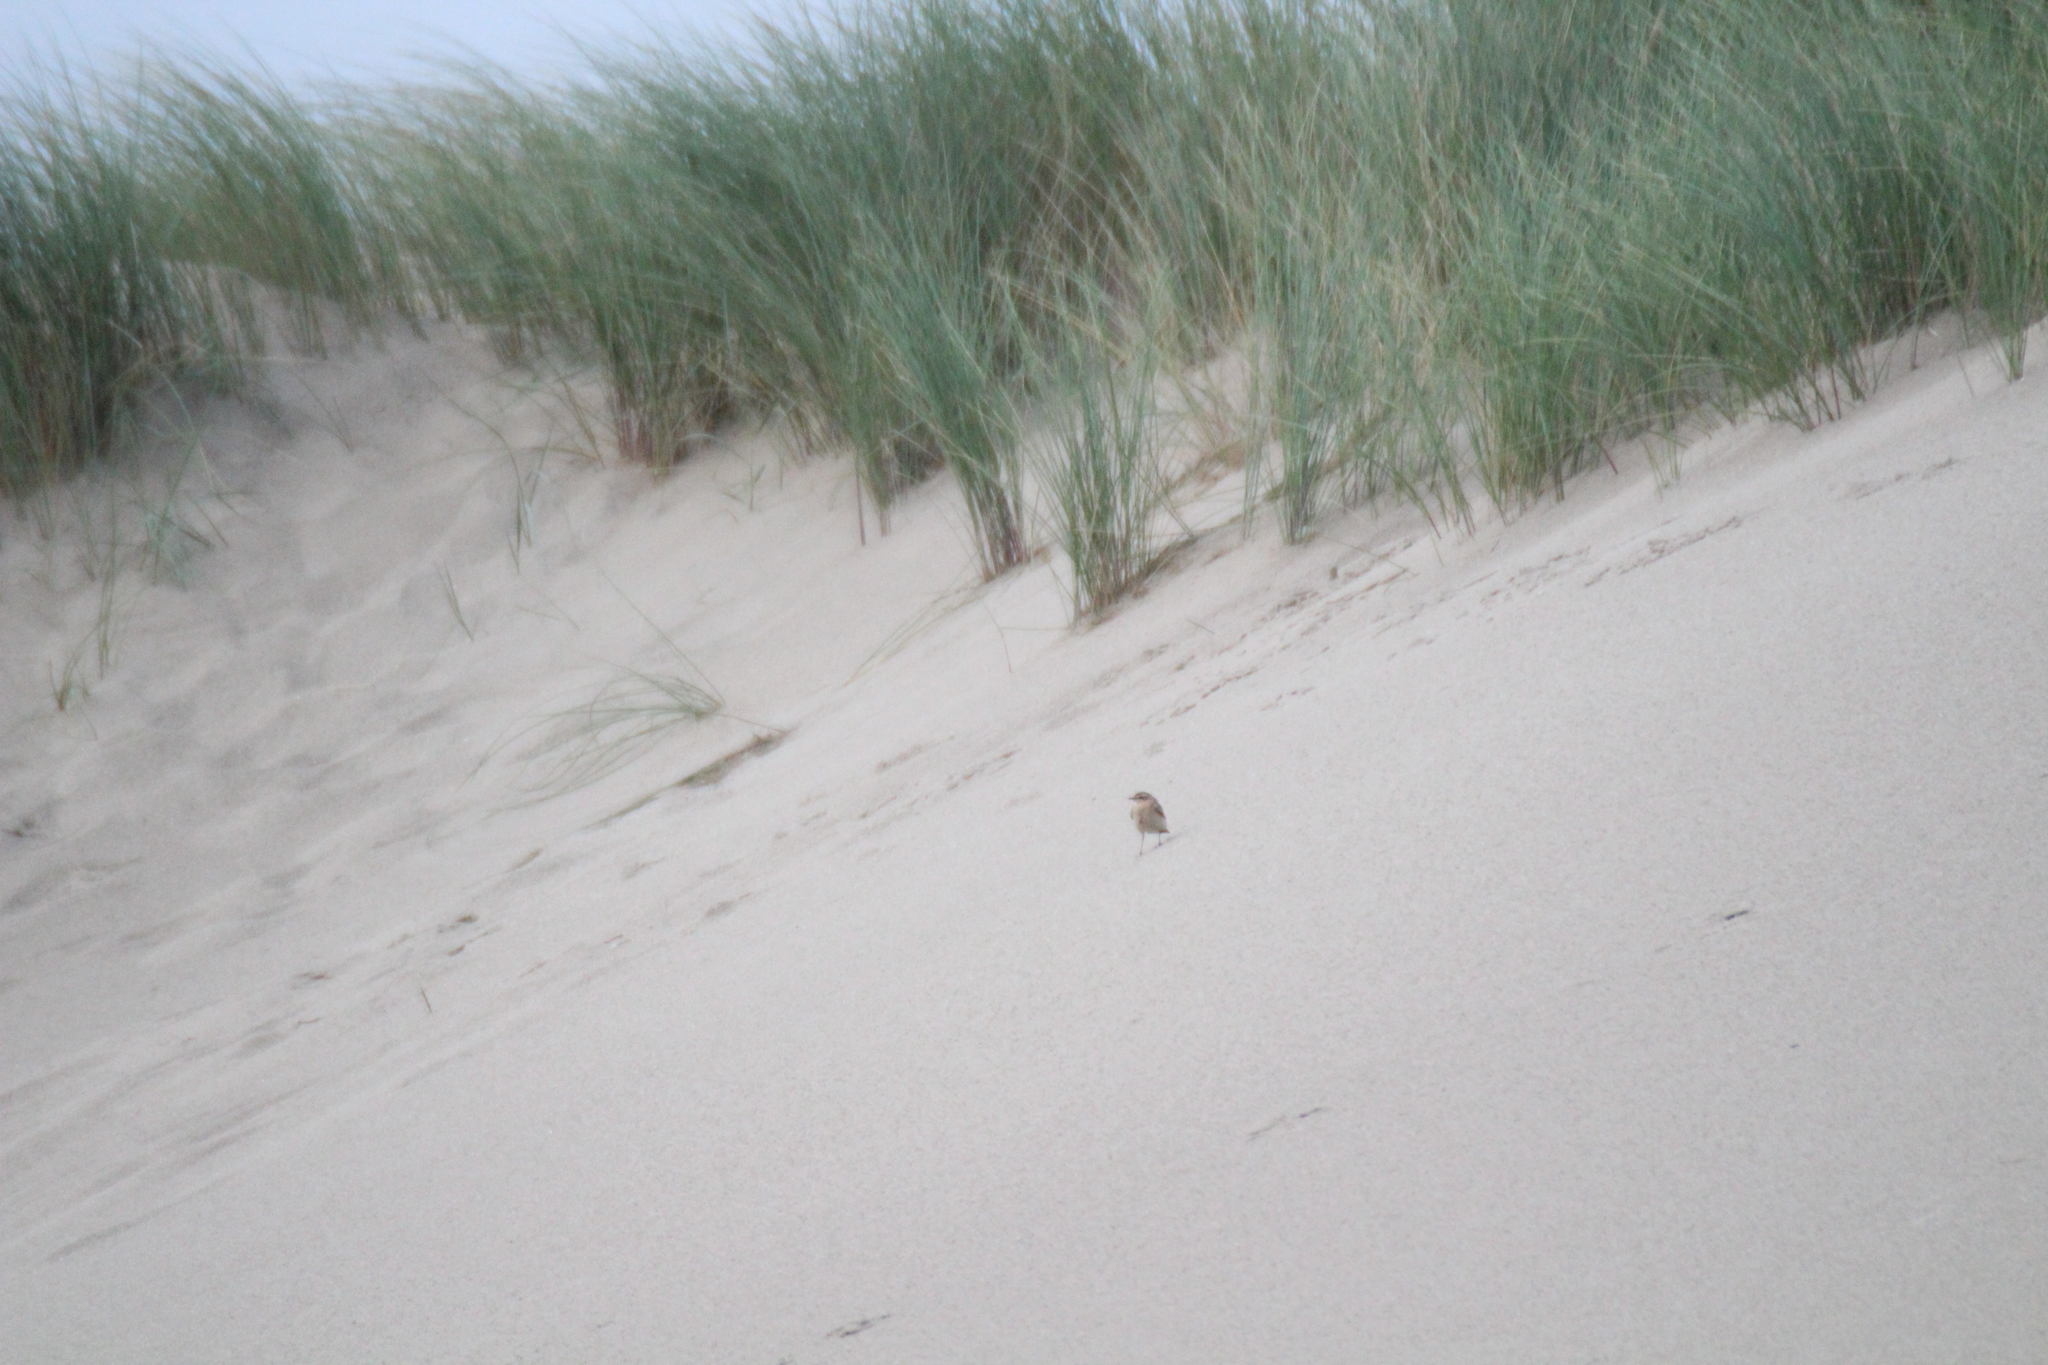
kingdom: Animalia
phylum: Chordata
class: Aves
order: Passeriformes
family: Muscicapidae
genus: Oenanthe
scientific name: Oenanthe oenanthe
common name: Northern wheatear
